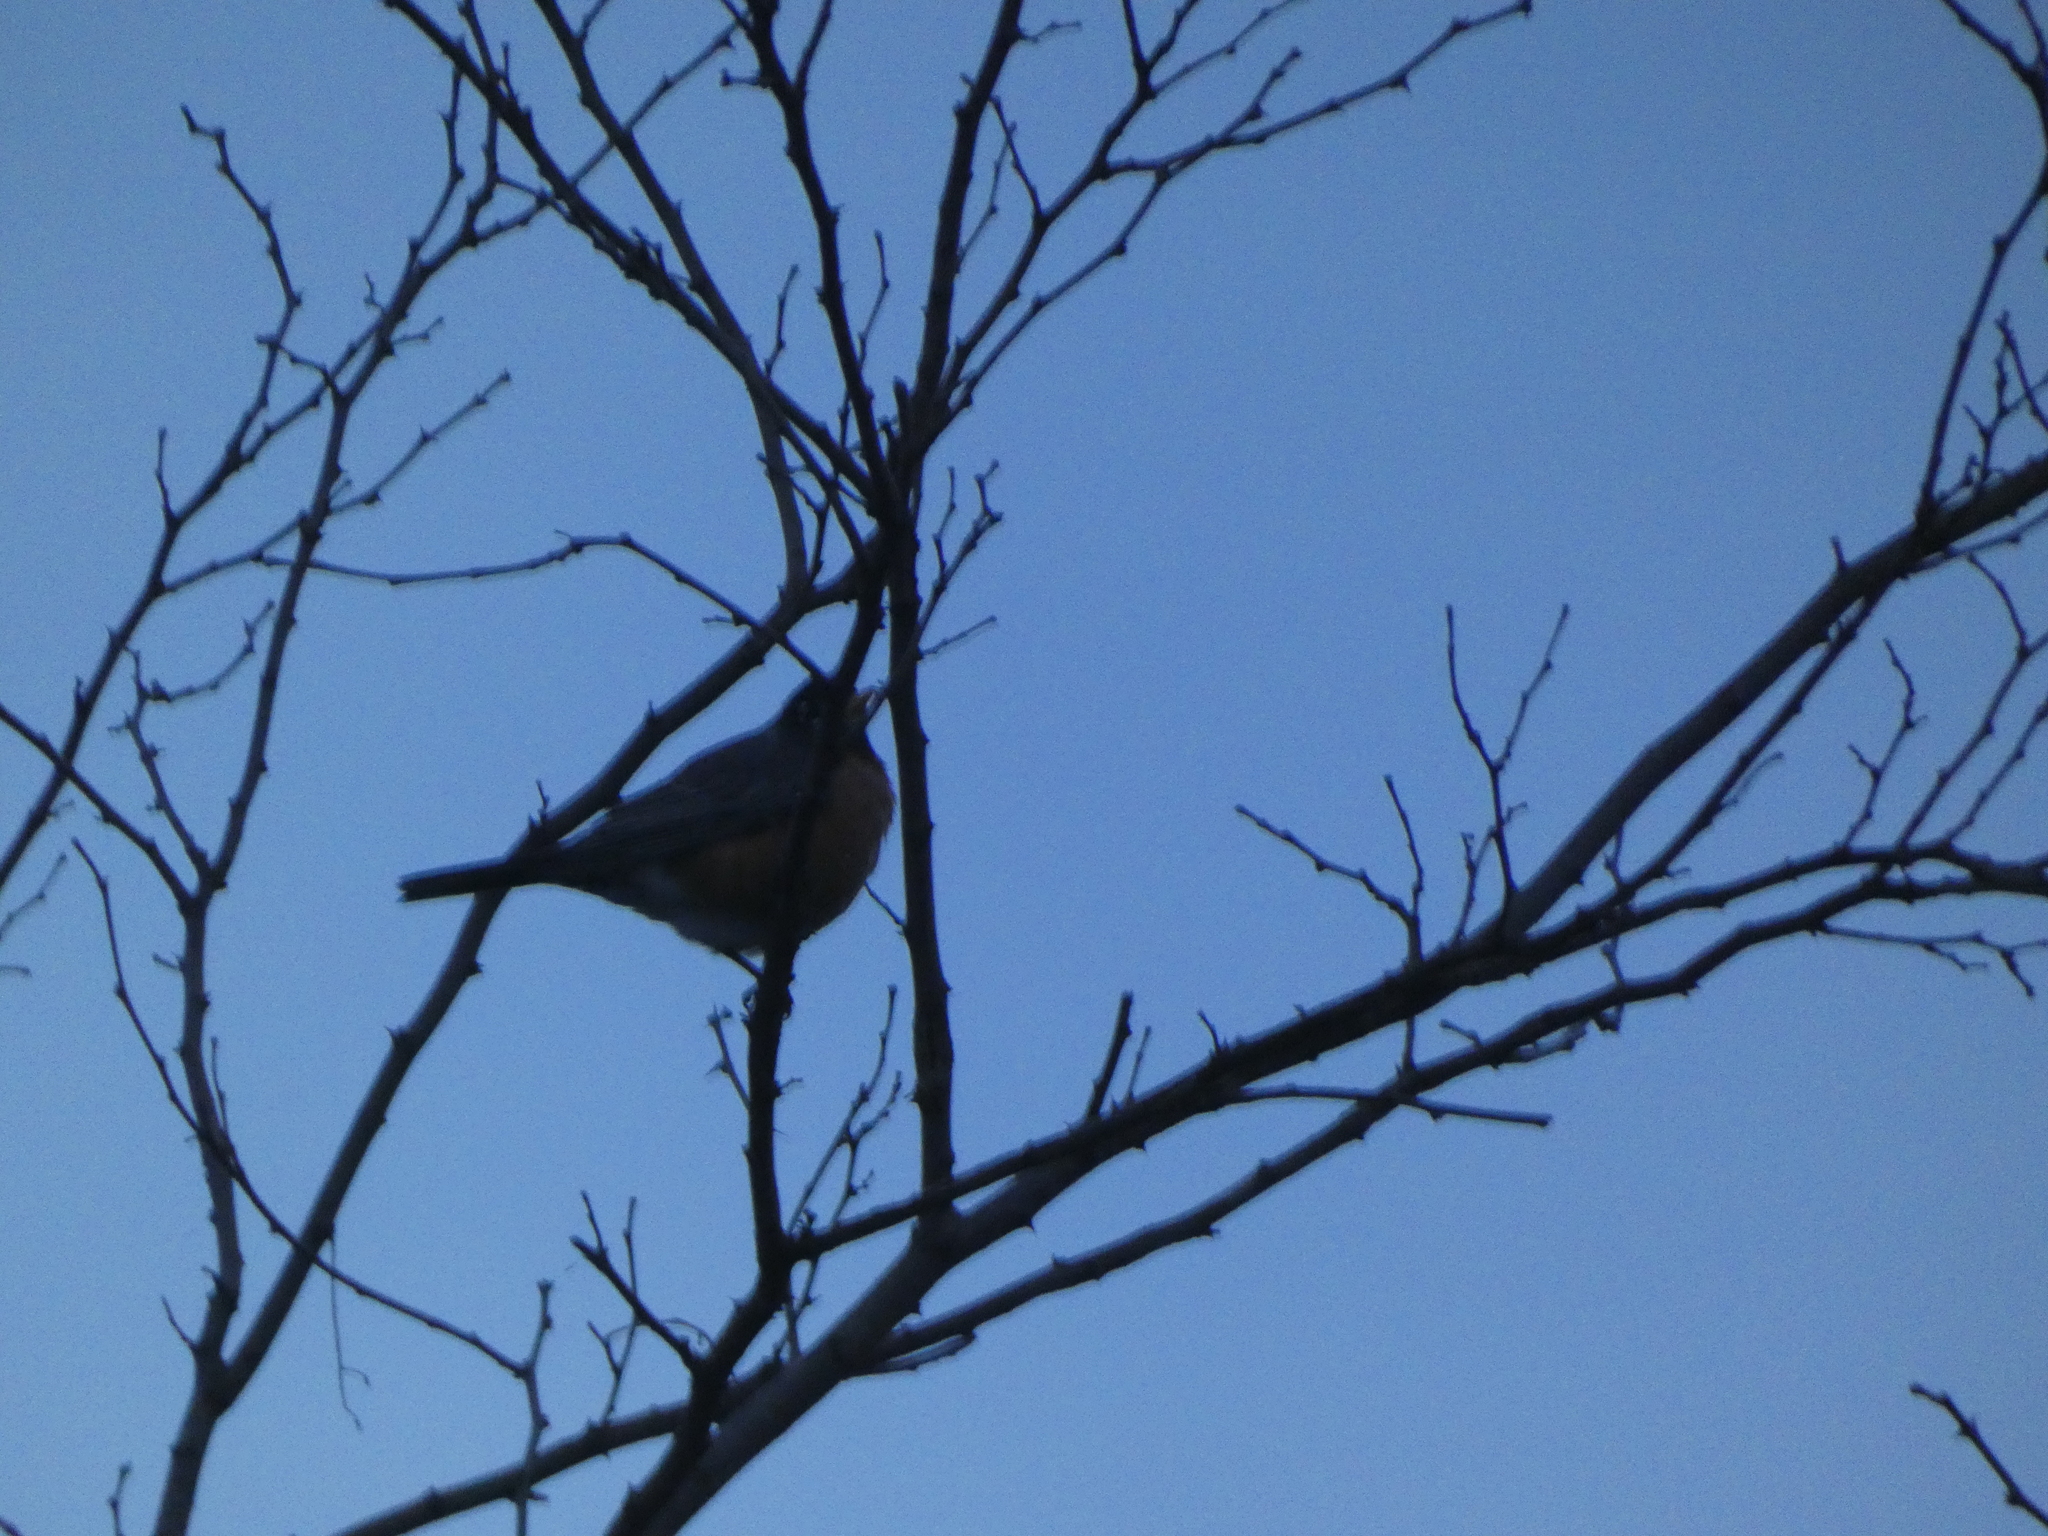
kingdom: Animalia
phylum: Chordata
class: Aves
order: Passeriformes
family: Turdidae
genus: Turdus
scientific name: Turdus migratorius
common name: American robin
